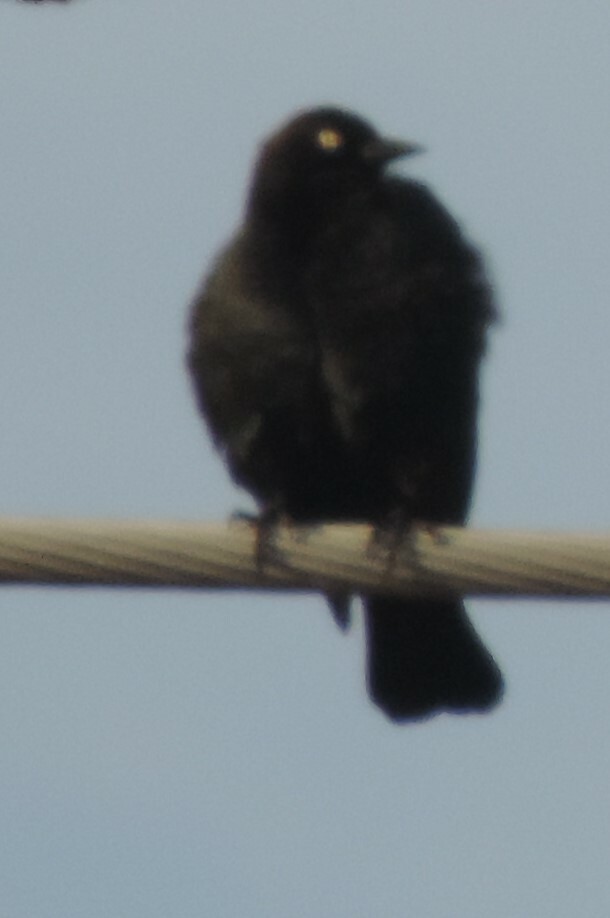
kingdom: Animalia
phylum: Chordata
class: Aves
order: Passeriformes
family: Icteridae
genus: Euphagus
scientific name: Euphagus cyanocephalus
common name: Brewer's blackbird
